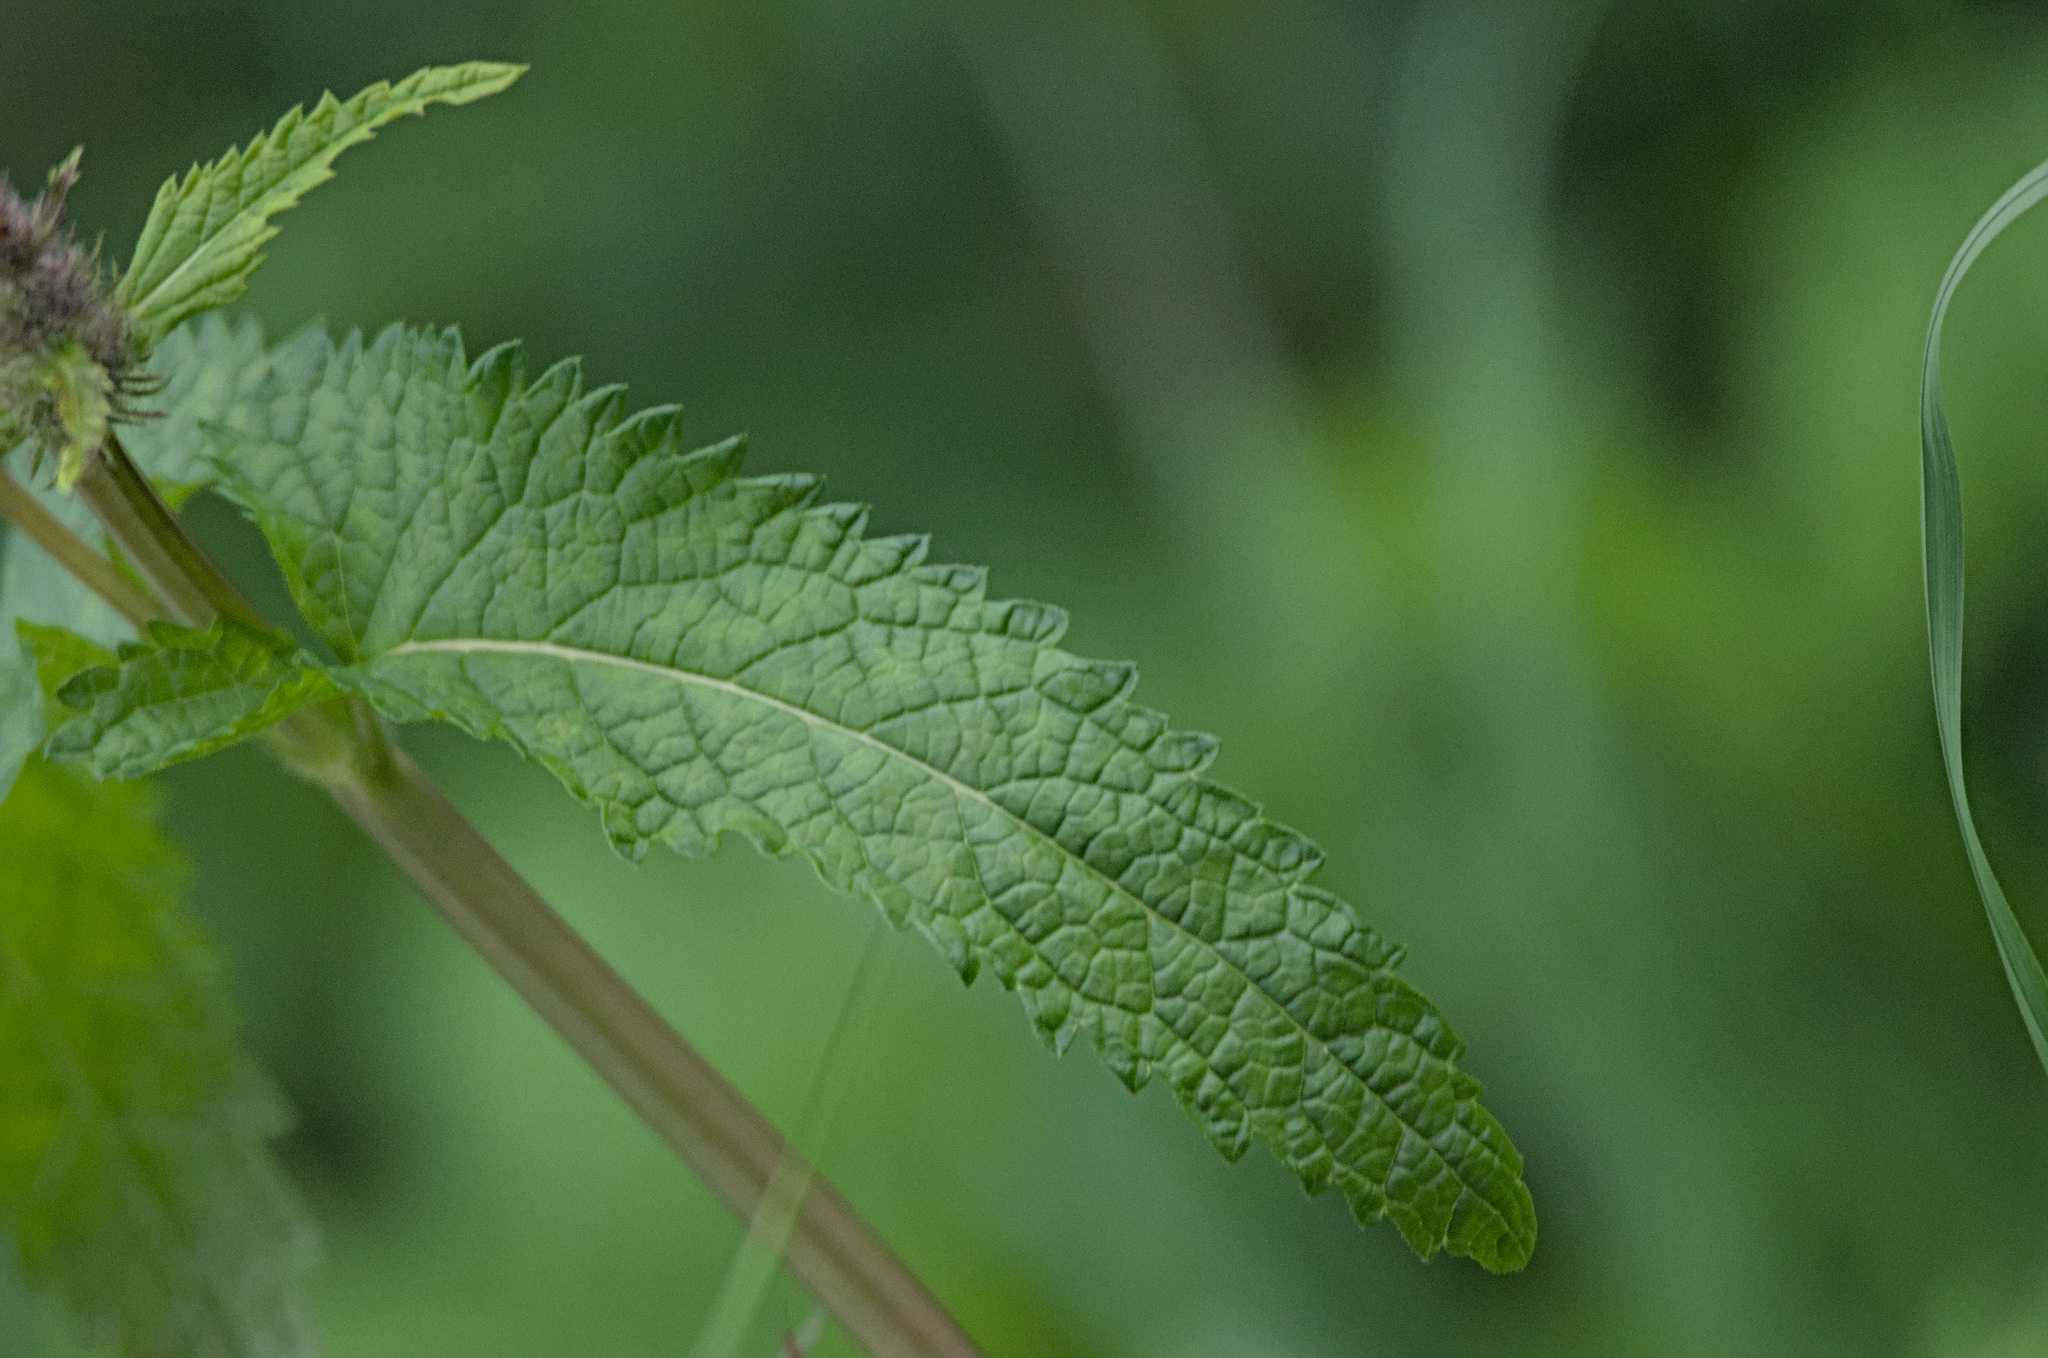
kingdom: Plantae
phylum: Tracheophyta
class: Magnoliopsida
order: Lamiales
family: Lamiaceae
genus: Phlomoides
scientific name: Phlomoides tuberosa
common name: Tuberous jerusalem sage
